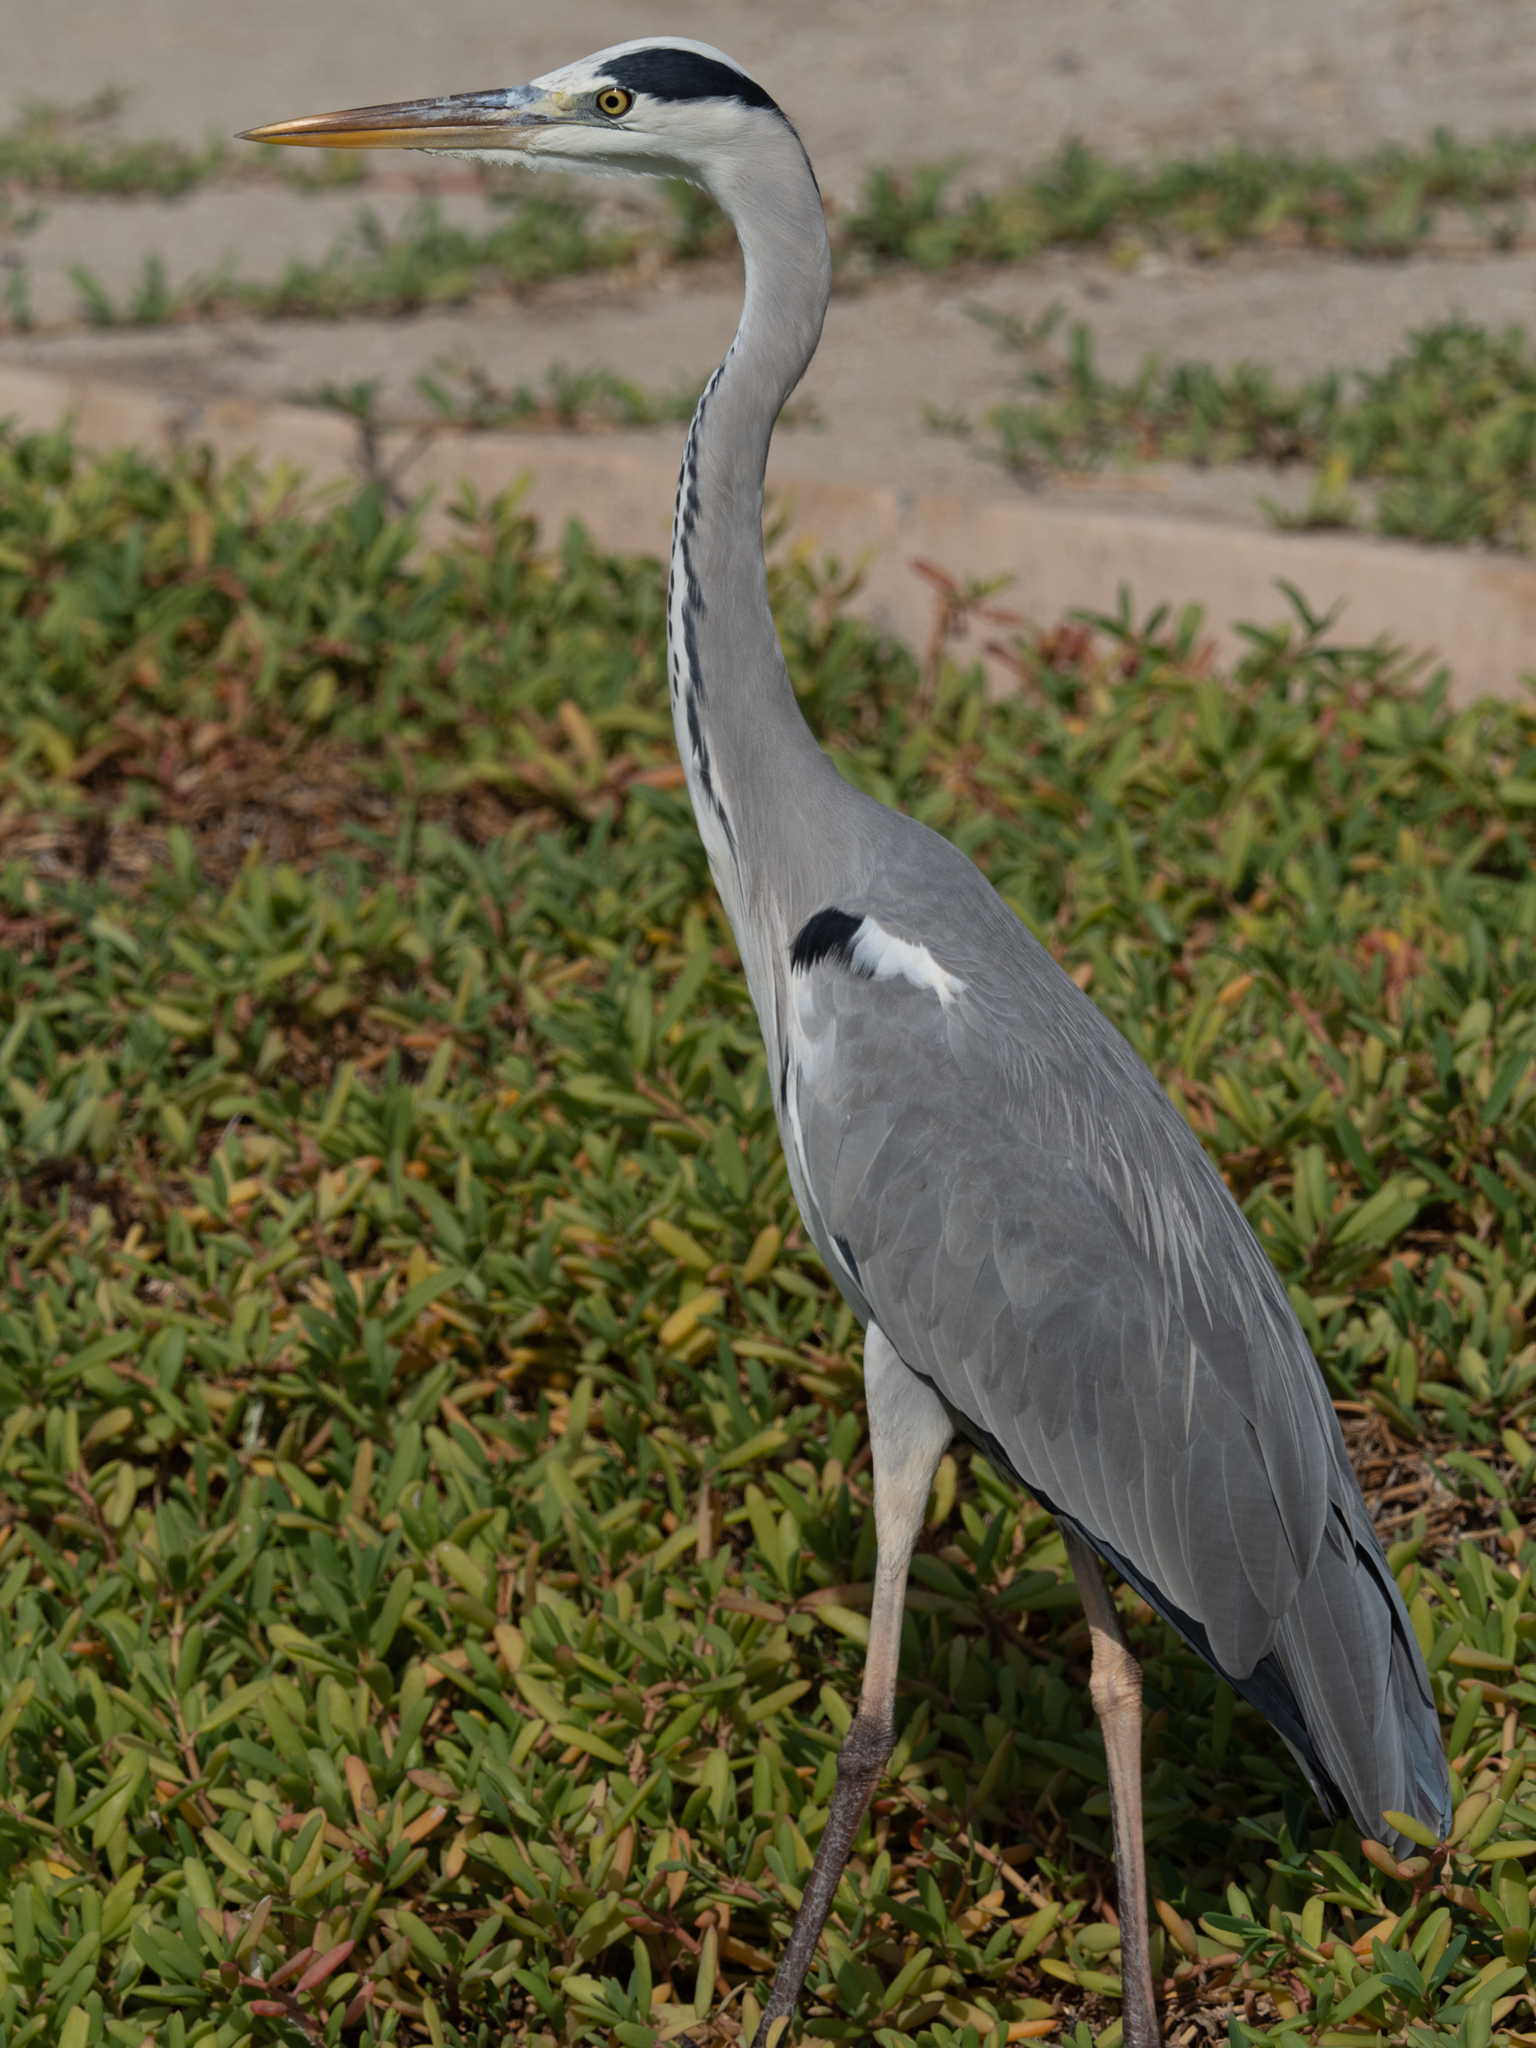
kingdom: Animalia
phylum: Chordata
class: Aves
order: Pelecaniformes
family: Ardeidae
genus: Ardea
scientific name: Ardea cinerea
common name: Grey heron
